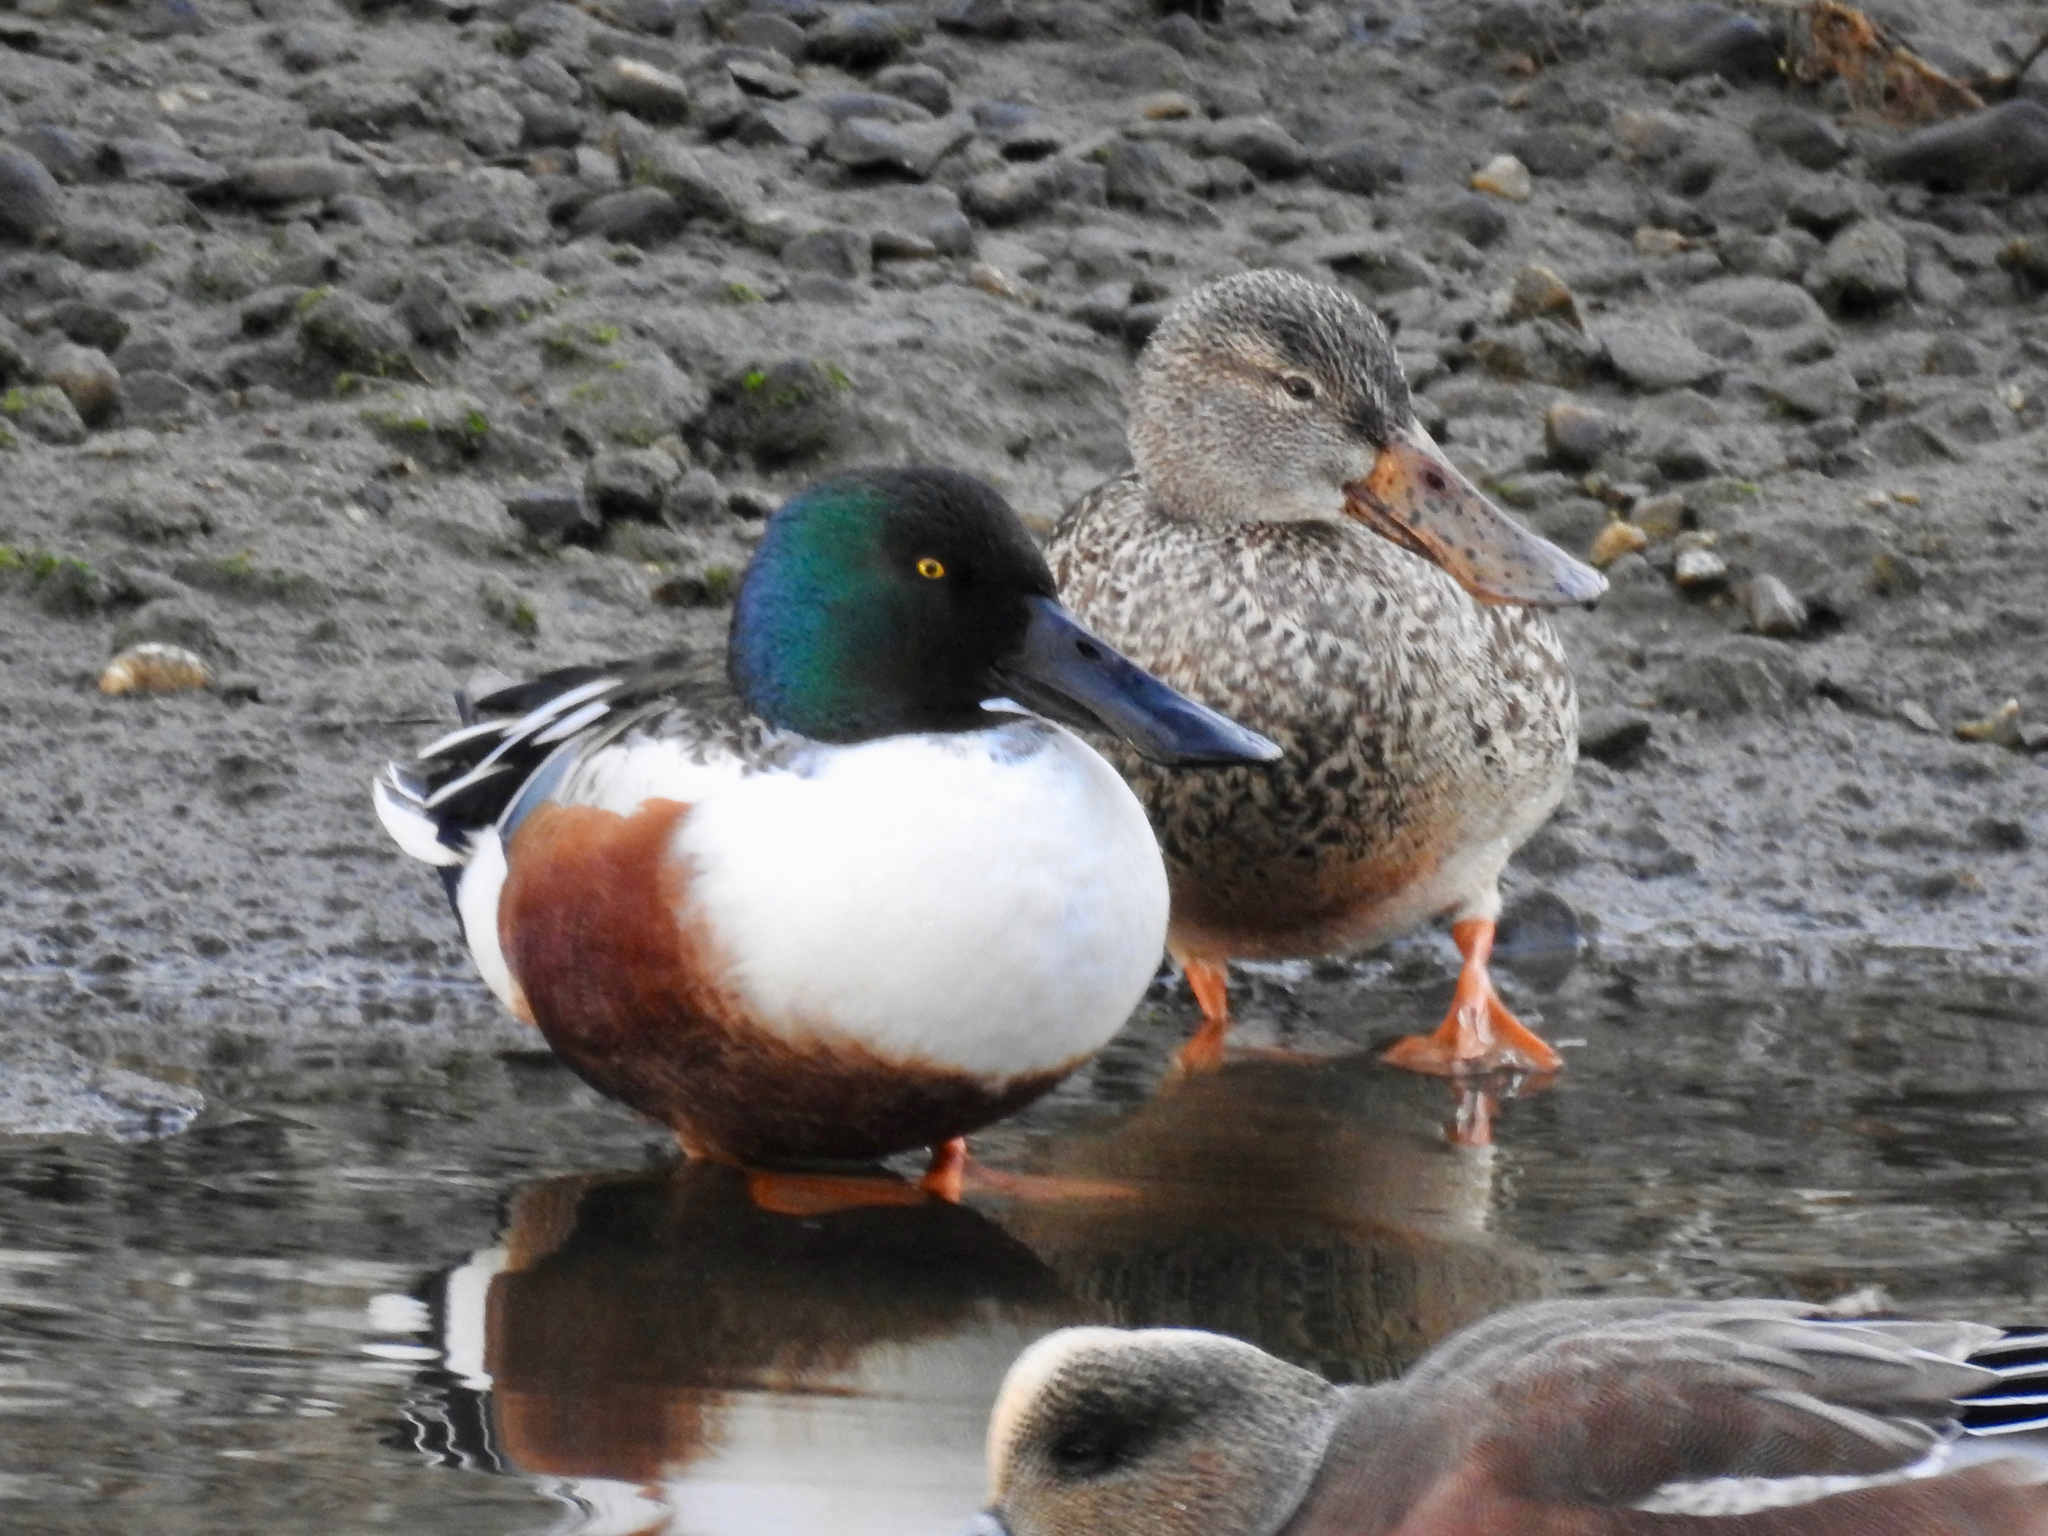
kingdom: Animalia
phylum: Chordata
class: Aves
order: Anseriformes
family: Anatidae
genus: Spatula
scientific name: Spatula clypeata
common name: Northern shoveler
